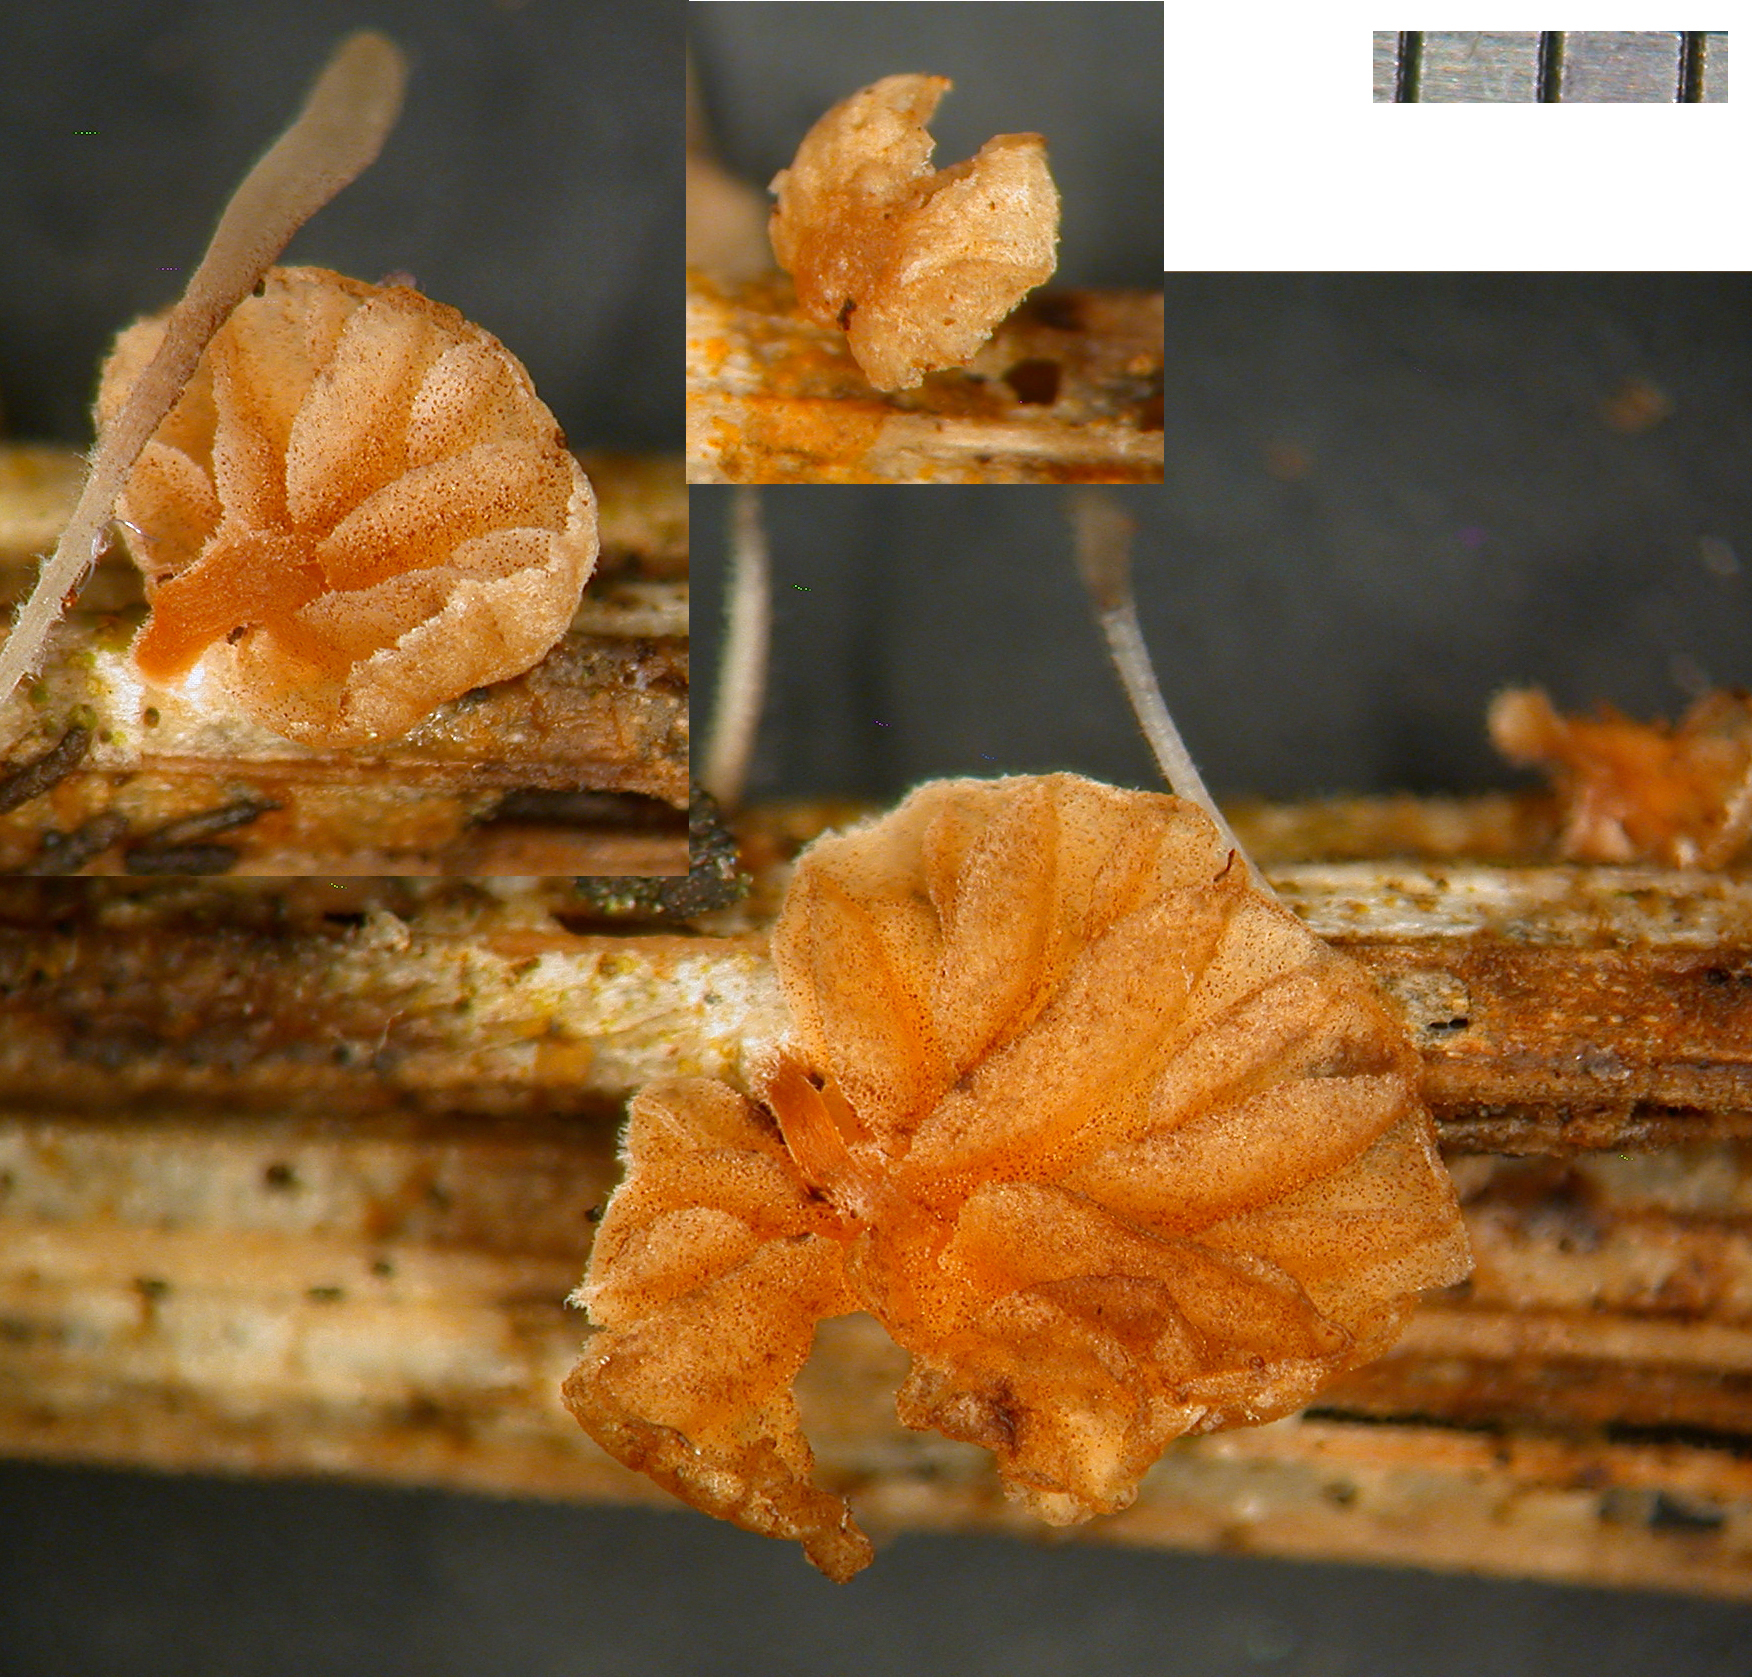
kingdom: Fungi
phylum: Basidiomycota
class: Agaricomycetes
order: Agaricales
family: Strophariaceae
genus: Deconica
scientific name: Deconica citrispora
